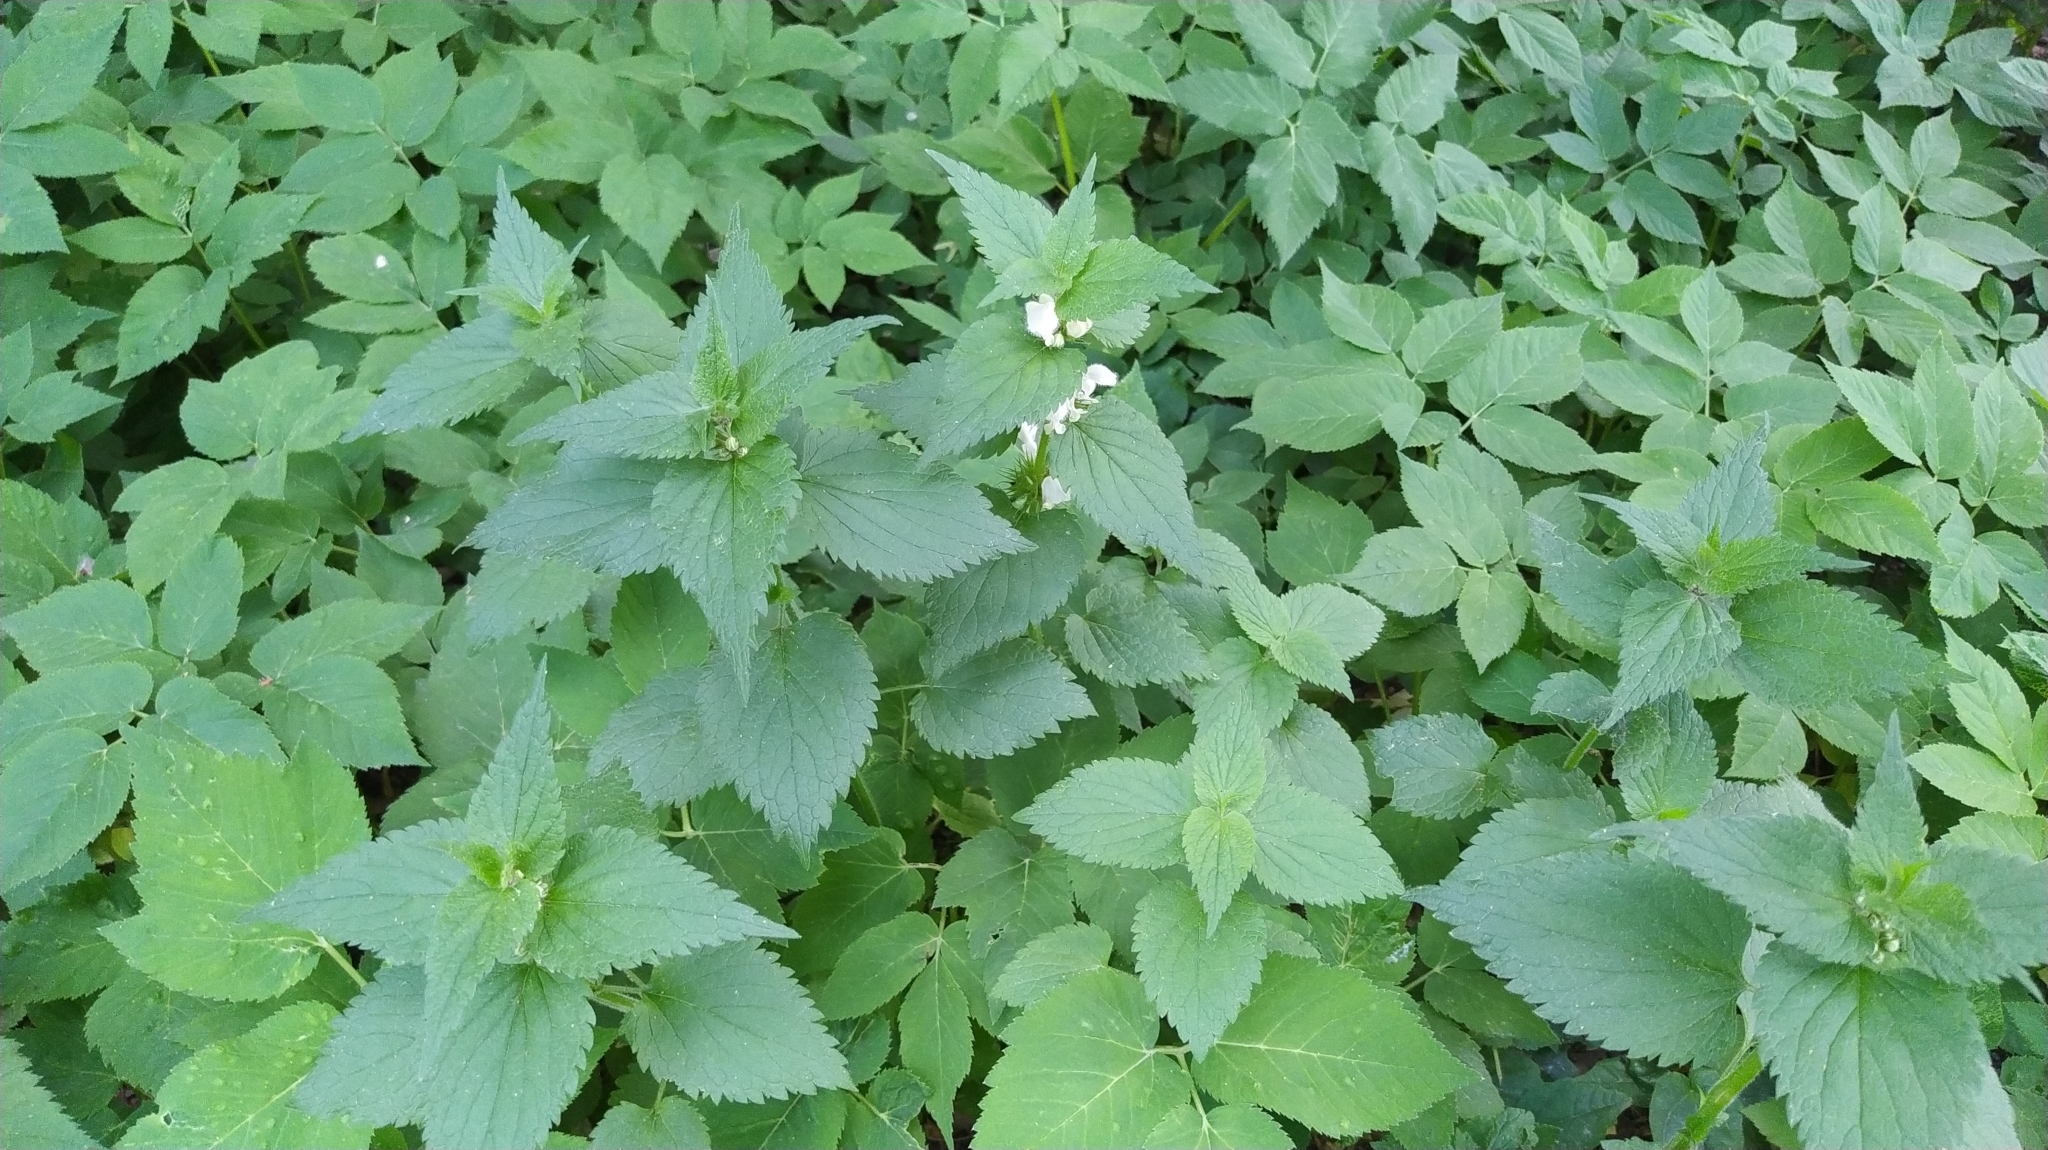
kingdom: Plantae
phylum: Tracheophyta
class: Magnoliopsida
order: Lamiales
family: Lamiaceae
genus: Lamium
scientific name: Lamium album
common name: White dead-nettle
